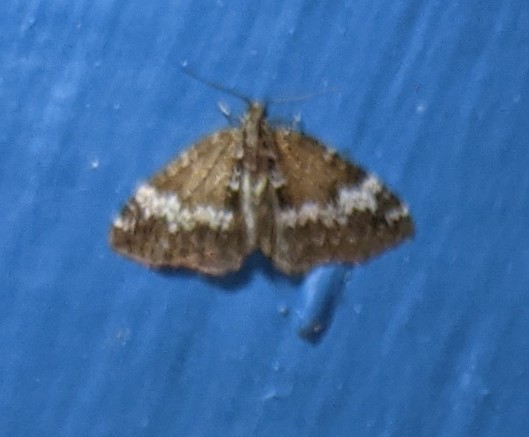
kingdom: Animalia
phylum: Arthropoda
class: Insecta
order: Lepidoptera
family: Geometridae
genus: Perizoma
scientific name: Perizoma alchemillata
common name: Small rivulet
